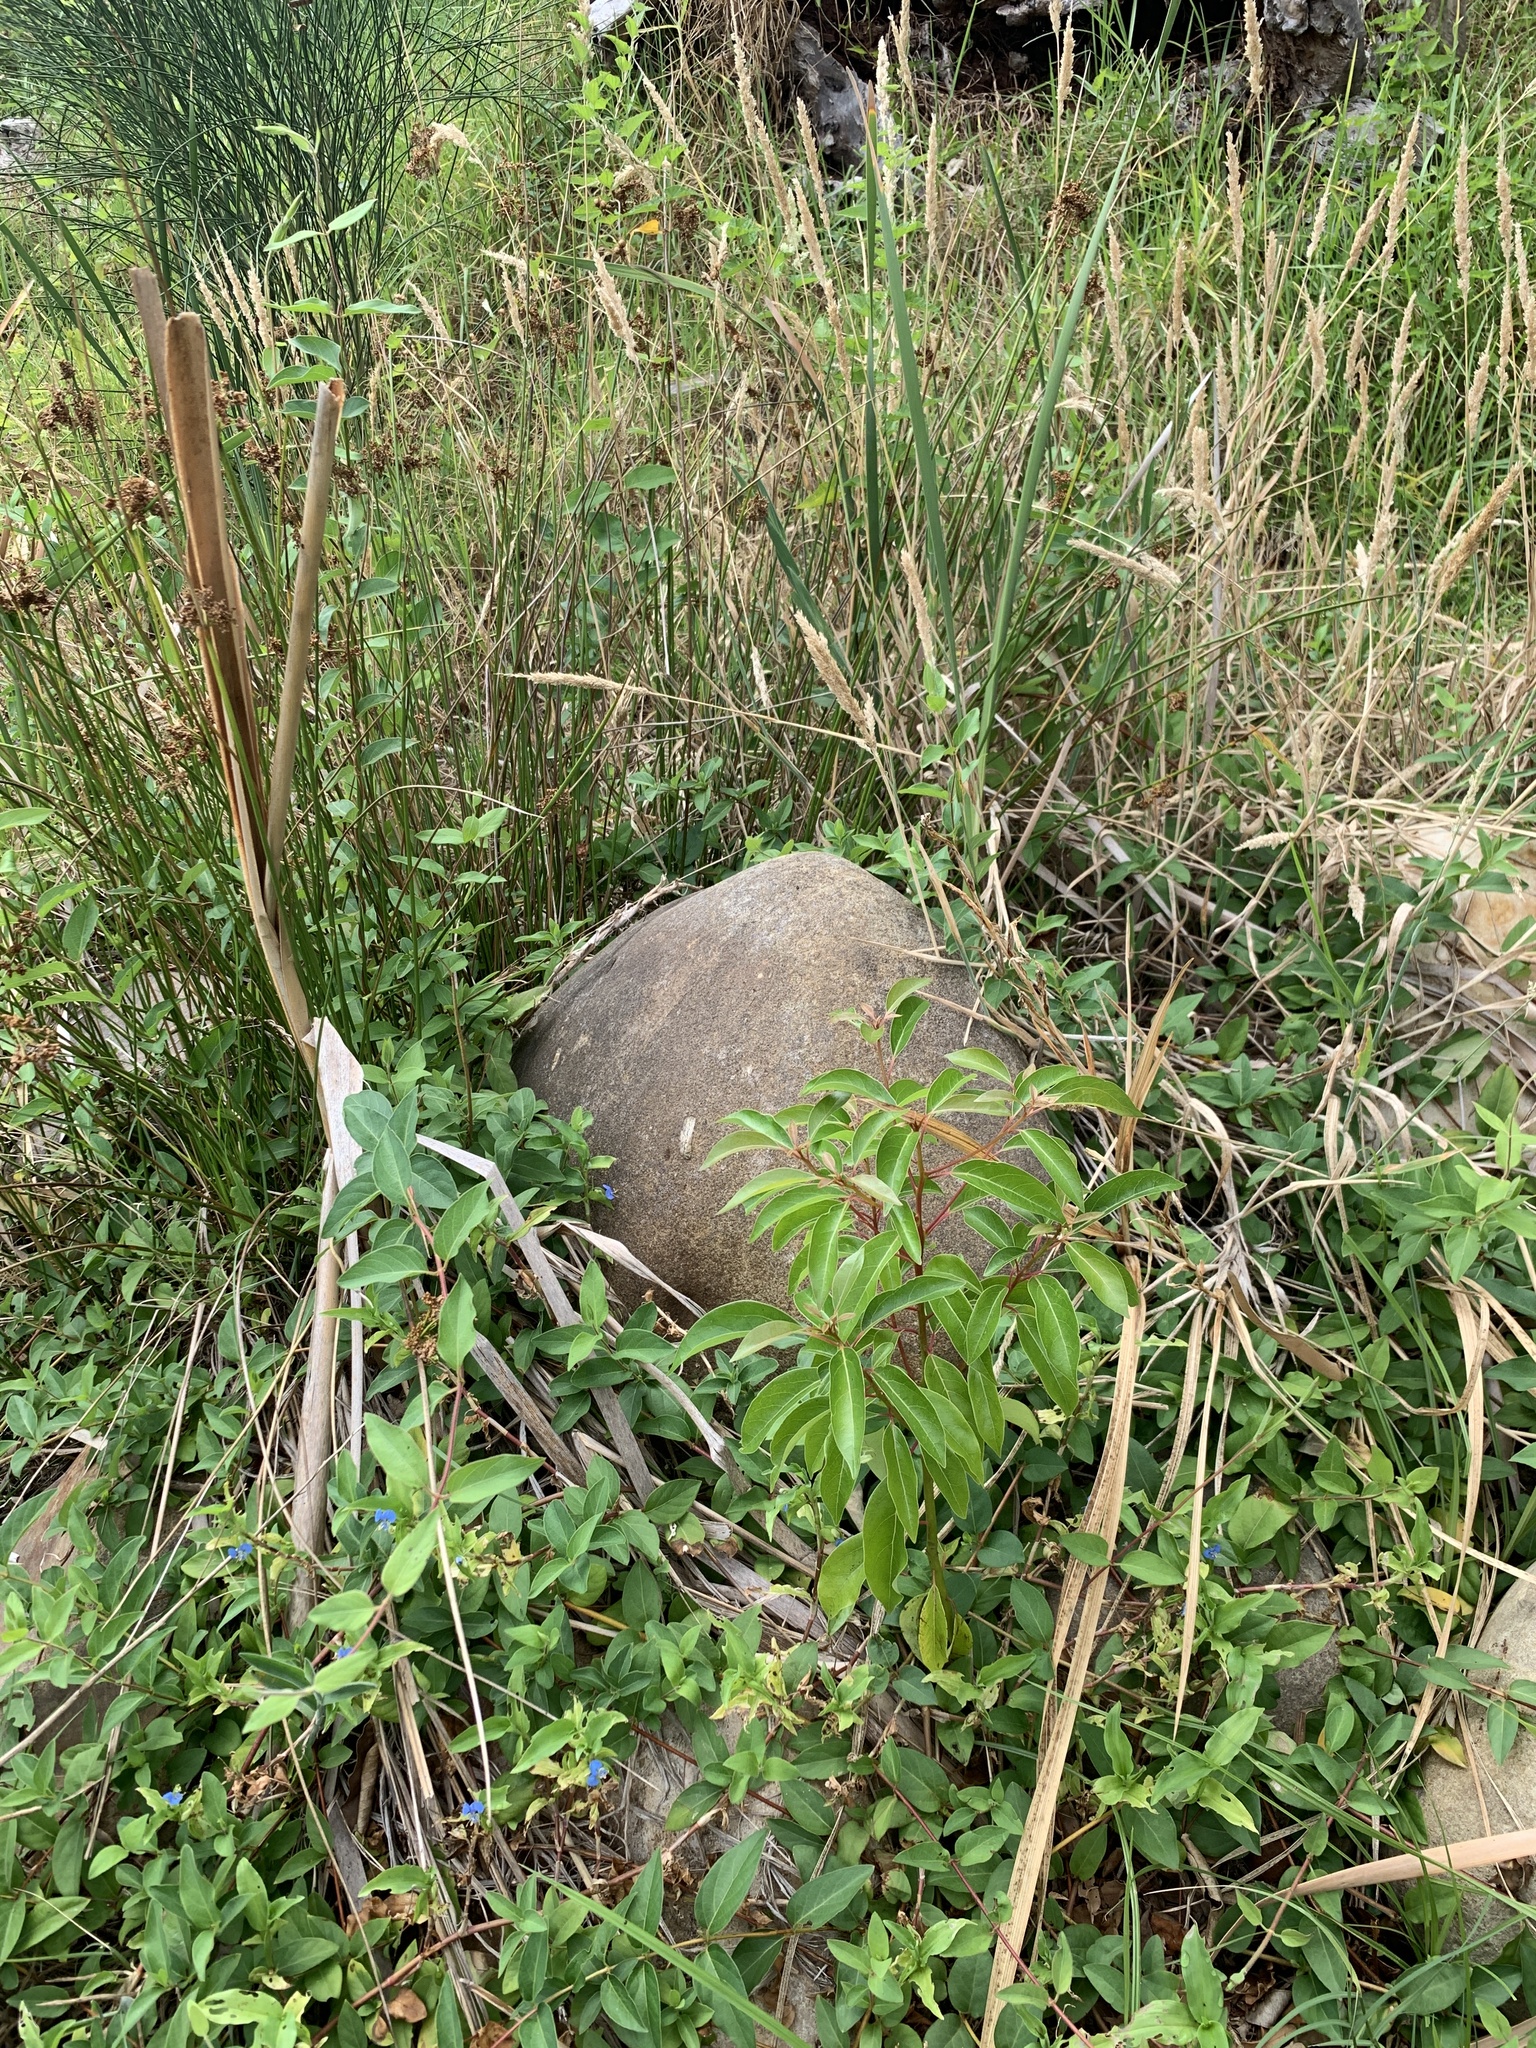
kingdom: Plantae
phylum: Tracheophyta
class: Magnoliopsida
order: Laurales
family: Lauraceae
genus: Cinnamomum
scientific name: Cinnamomum camphora
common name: Camphortree
